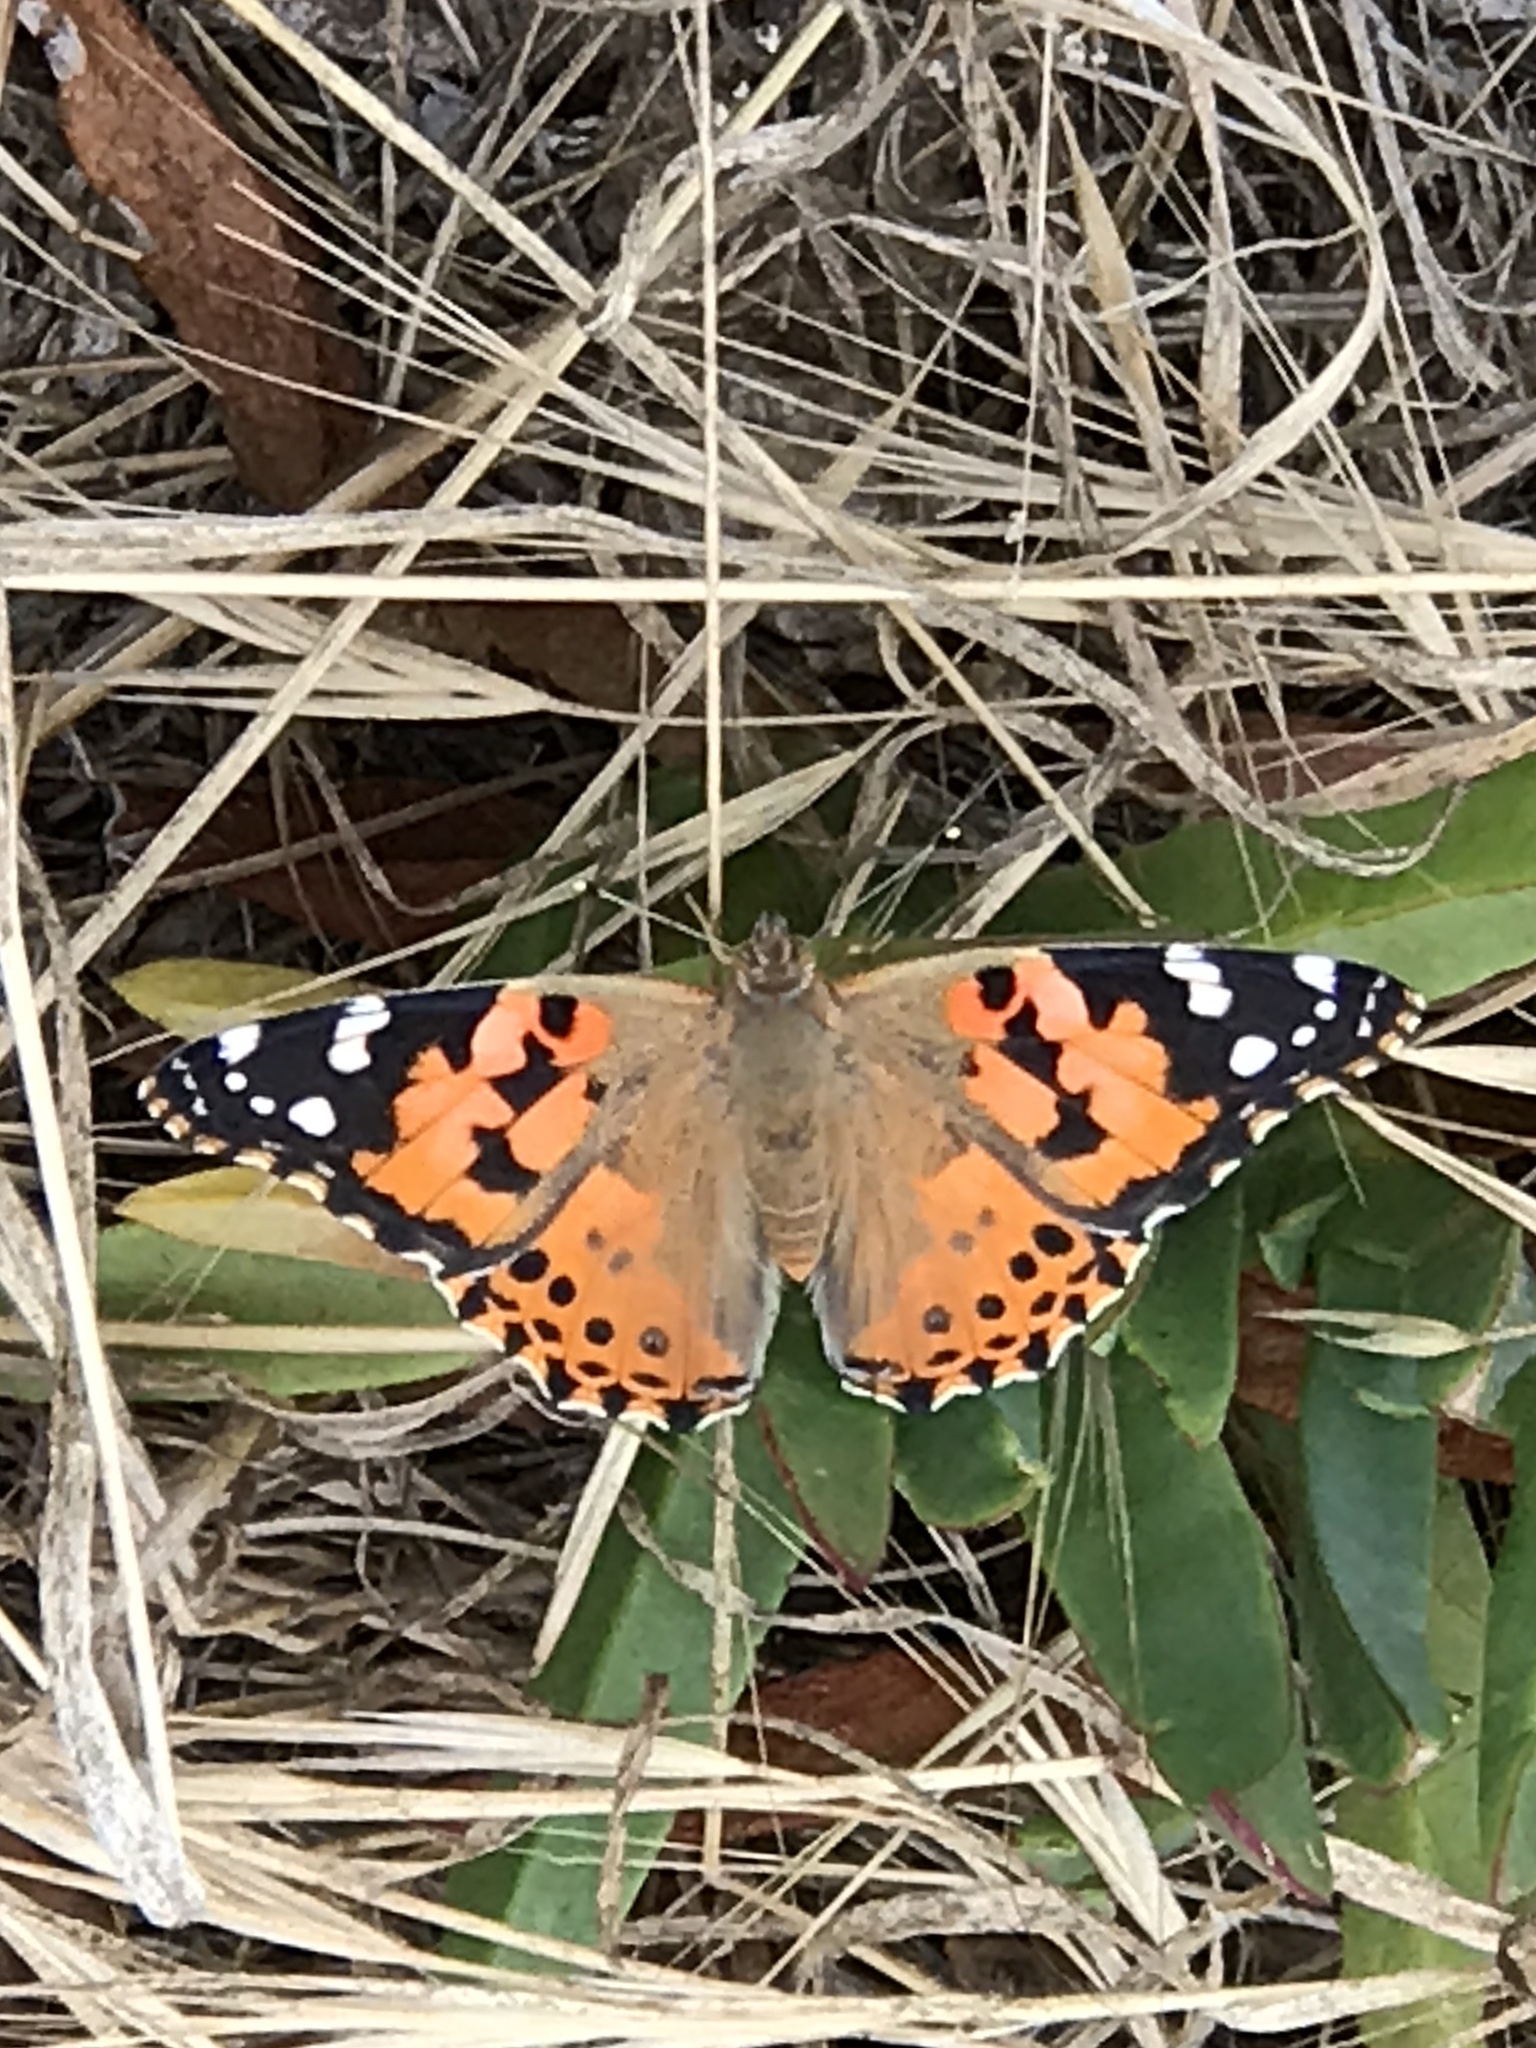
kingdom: Animalia
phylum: Arthropoda
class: Insecta
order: Lepidoptera
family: Nymphalidae
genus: Vanessa
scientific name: Vanessa cardui
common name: Painted lady
